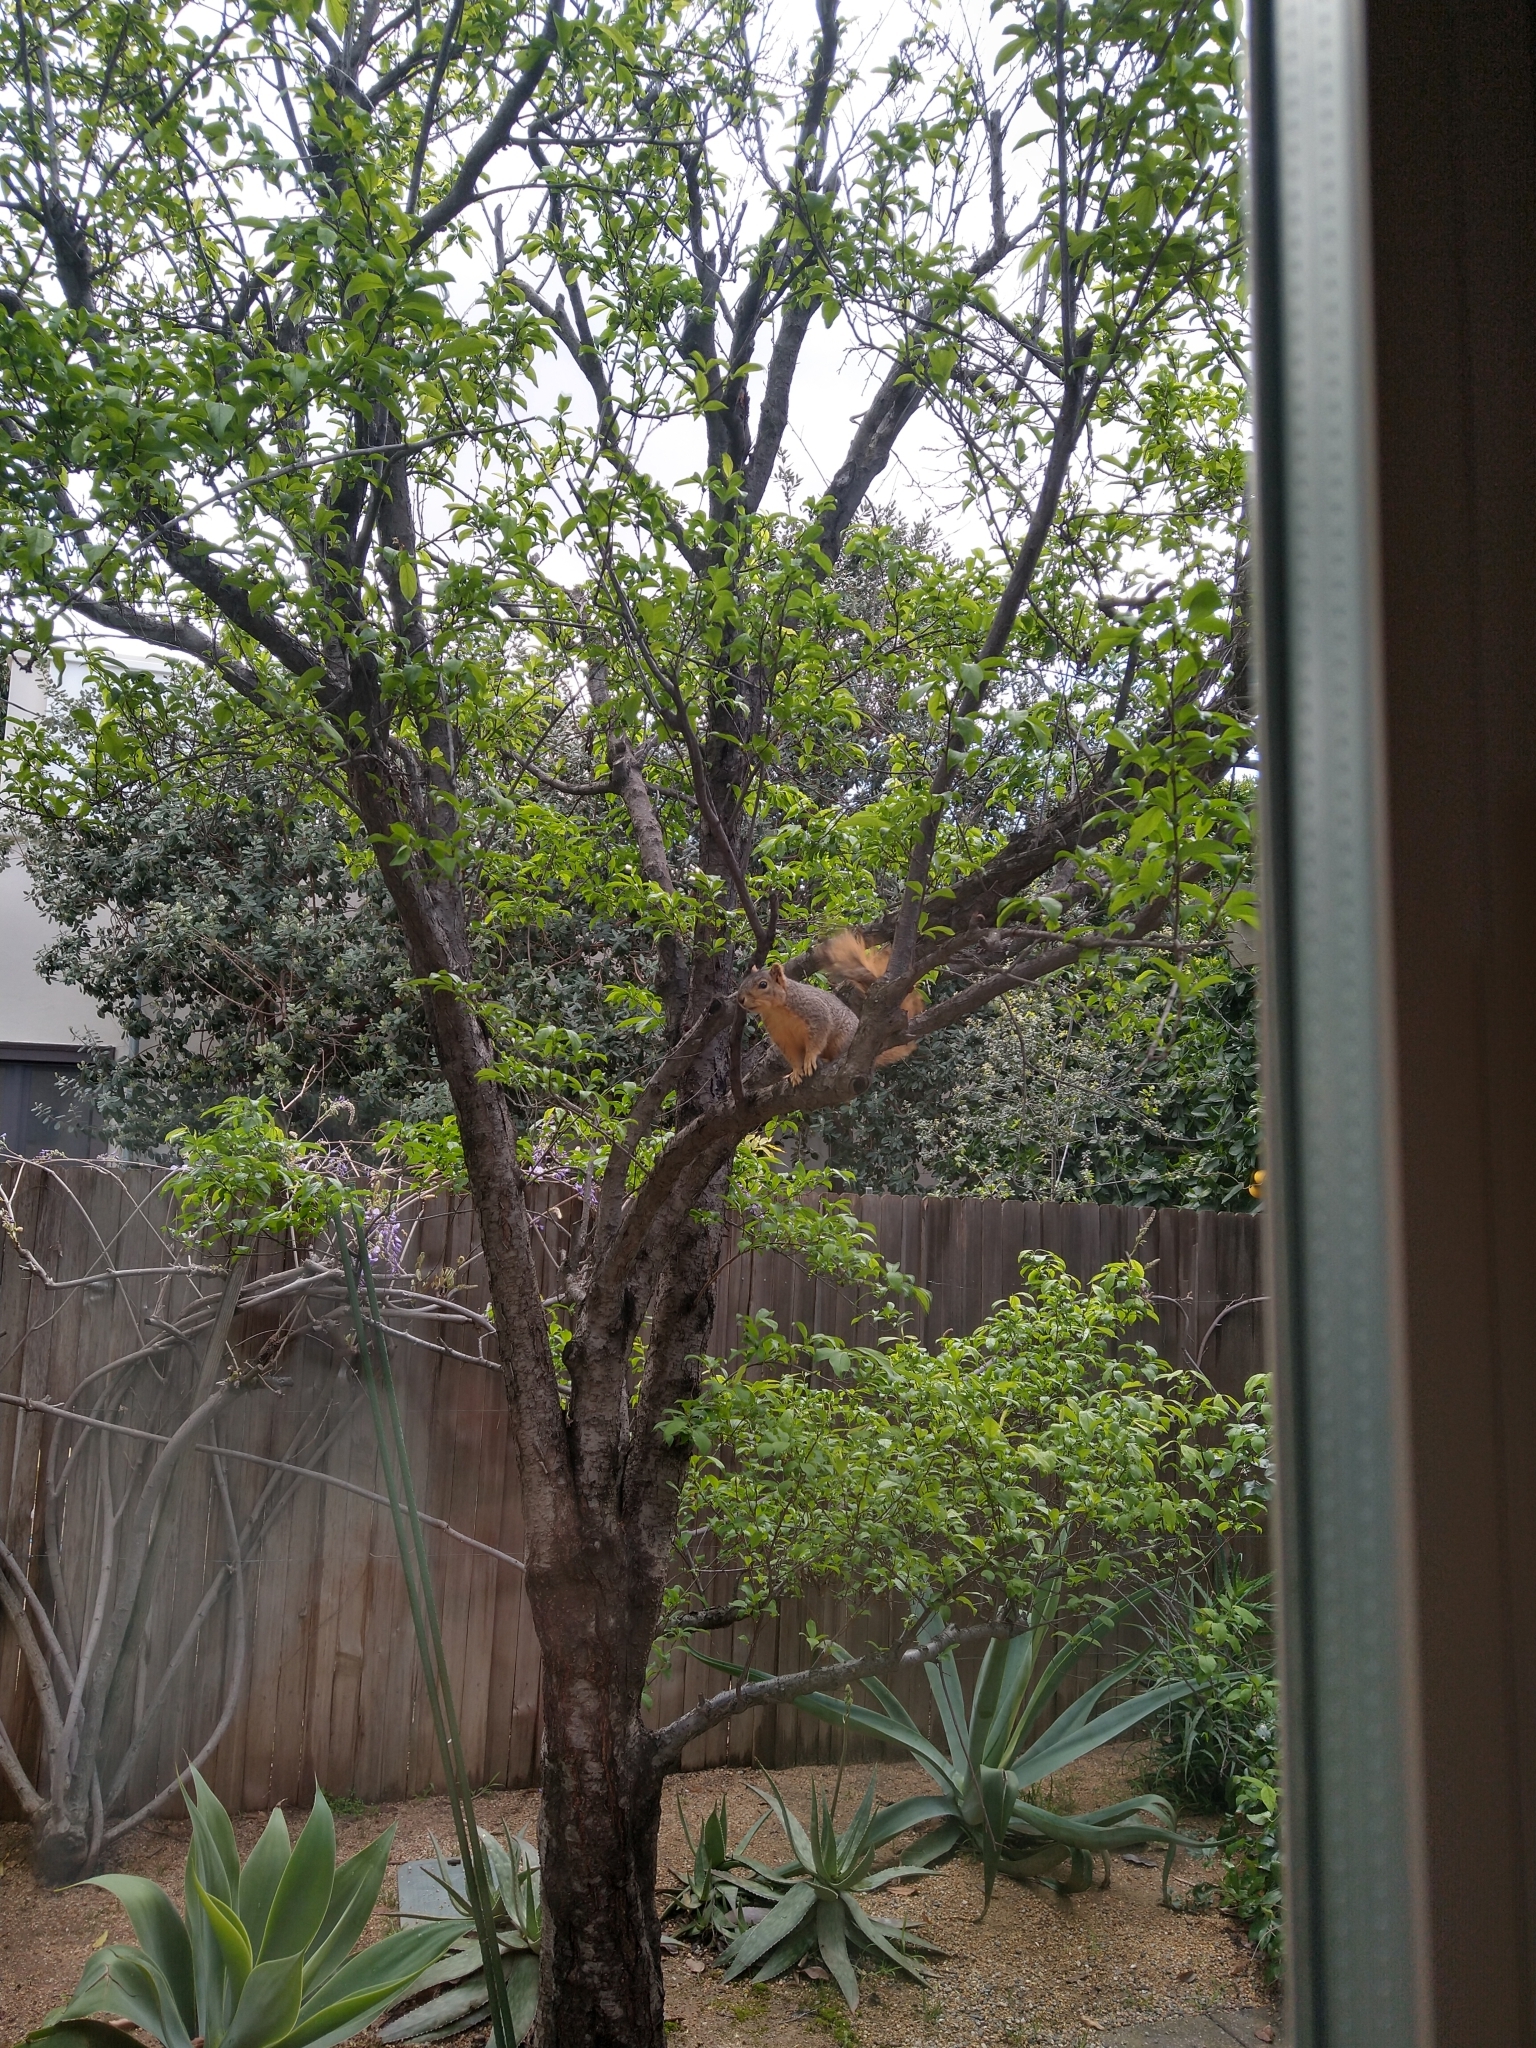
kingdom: Animalia
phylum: Chordata
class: Mammalia
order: Rodentia
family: Sciuridae
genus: Sciurus
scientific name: Sciurus niger
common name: Fox squirrel
